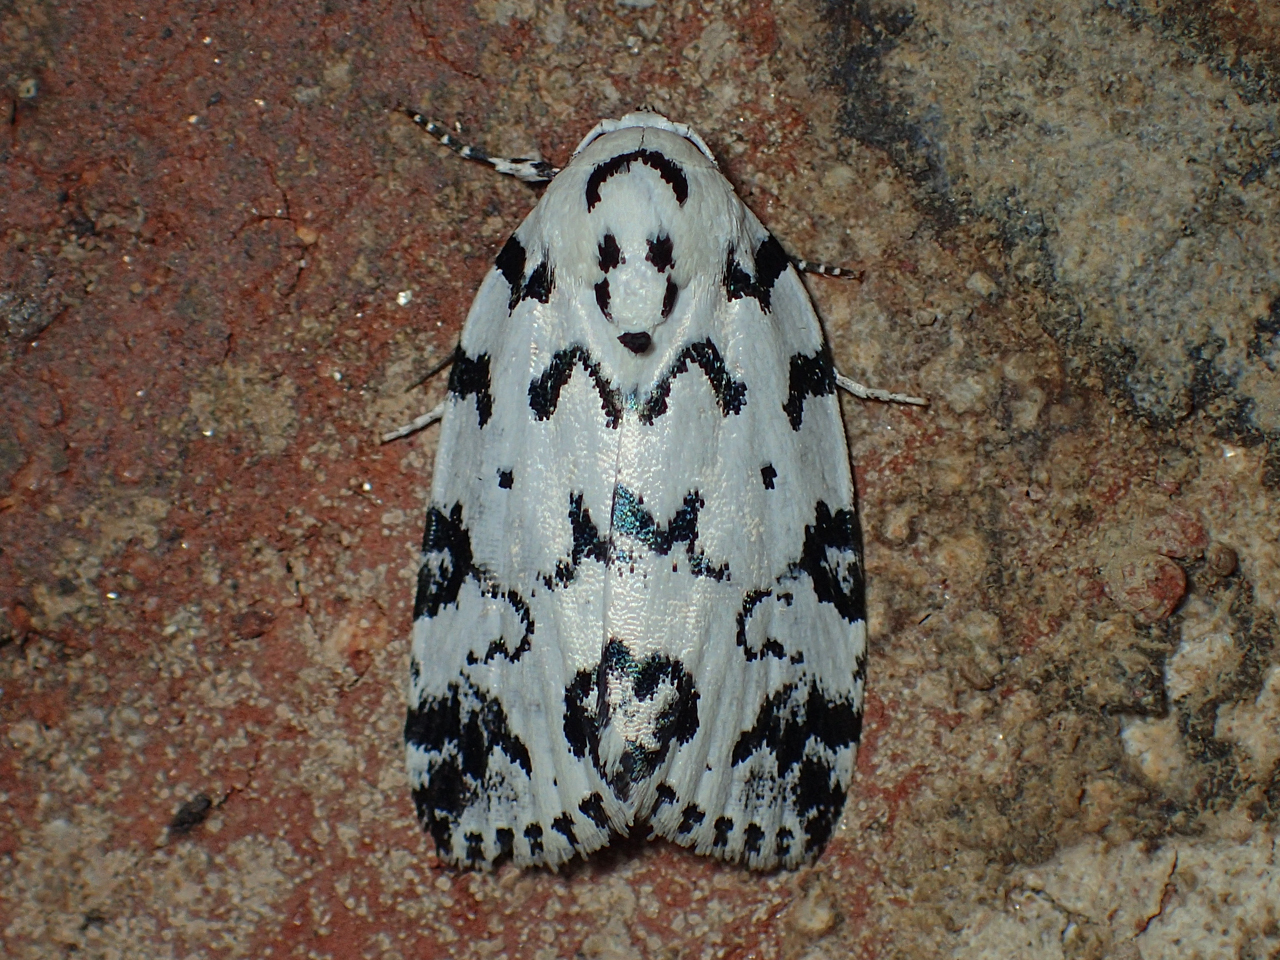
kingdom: Animalia
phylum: Arthropoda
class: Insecta
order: Lepidoptera
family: Noctuidae
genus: Polygrammate
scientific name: Polygrammate hebraeicum
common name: Hebrew moth
